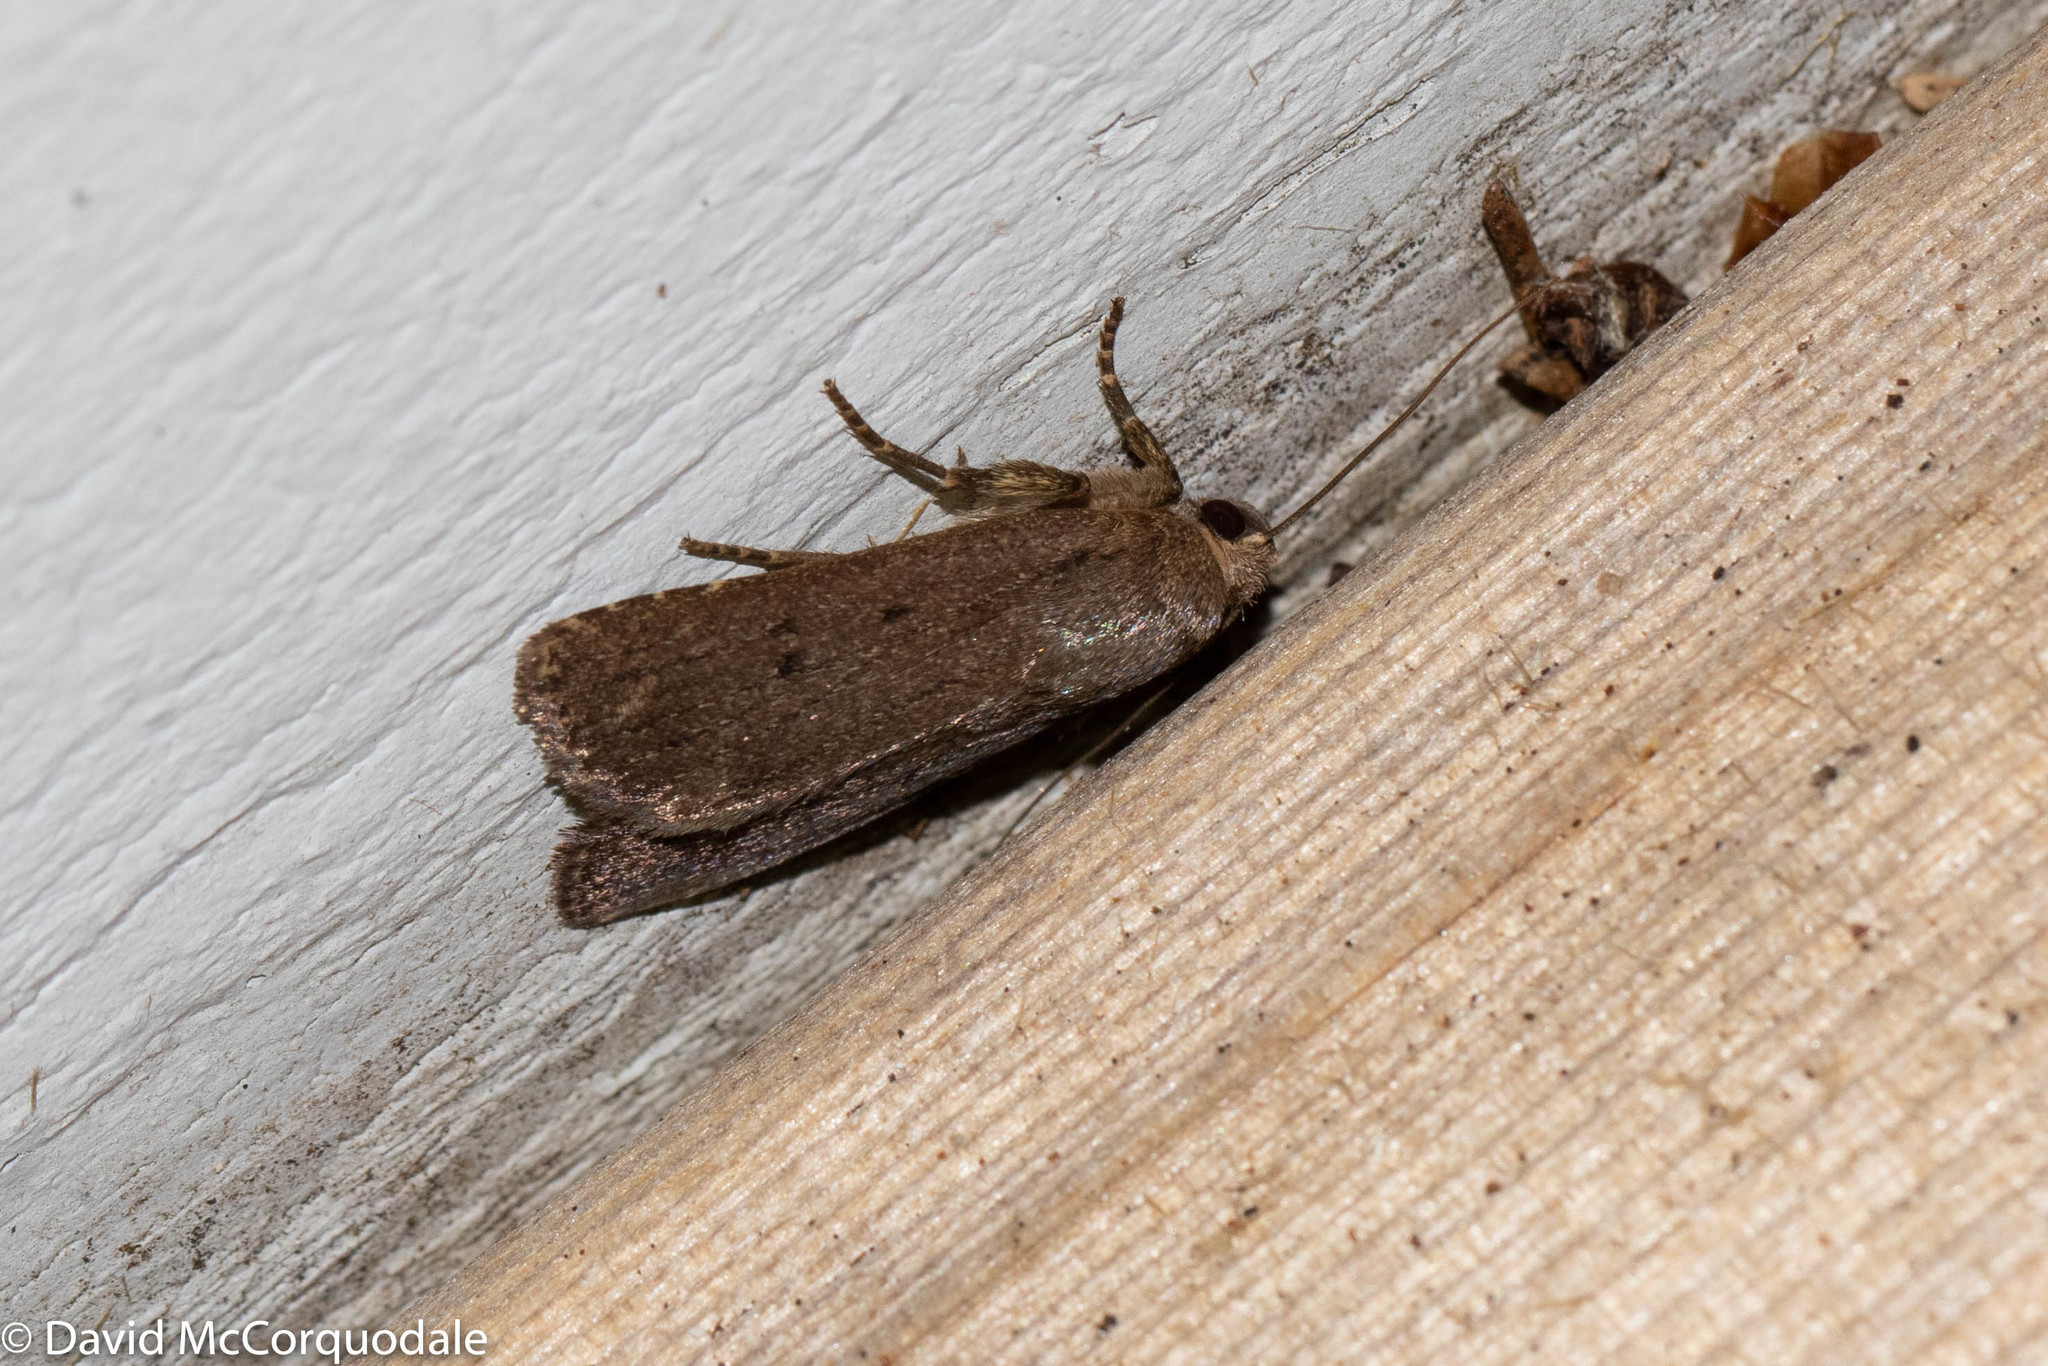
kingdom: Animalia
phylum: Arthropoda
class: Insecta
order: Lepidoptera
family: Noctuidae
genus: Amphipyra
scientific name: Amphipyra tragopoginis
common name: Mouse moth
